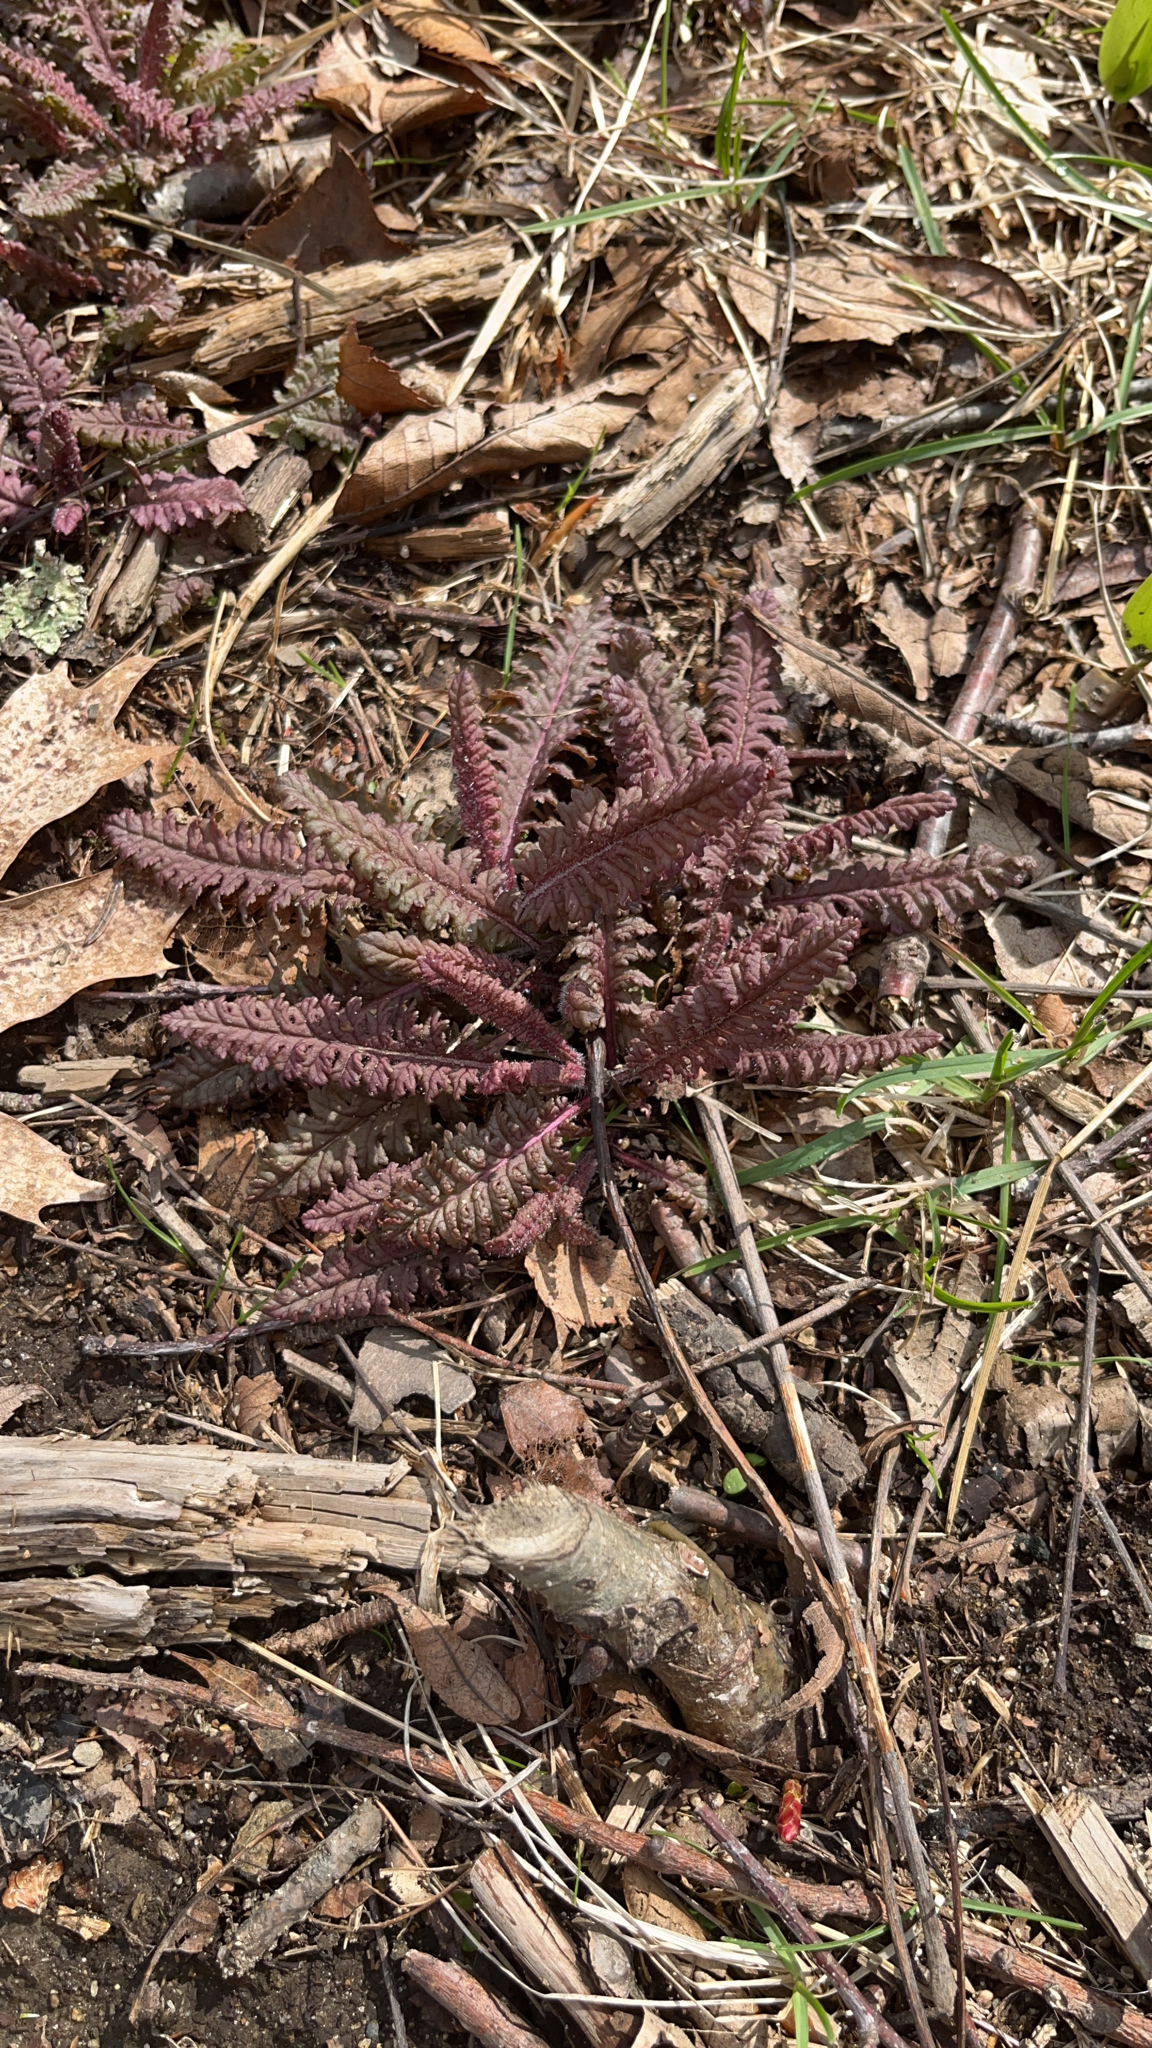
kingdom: Plantae
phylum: Tracheophyta
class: Magnoliopsida
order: Lamiales
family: Orobanchaceae
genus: Pedicularis
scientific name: Pedicularis canadensis
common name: Early lousewort
